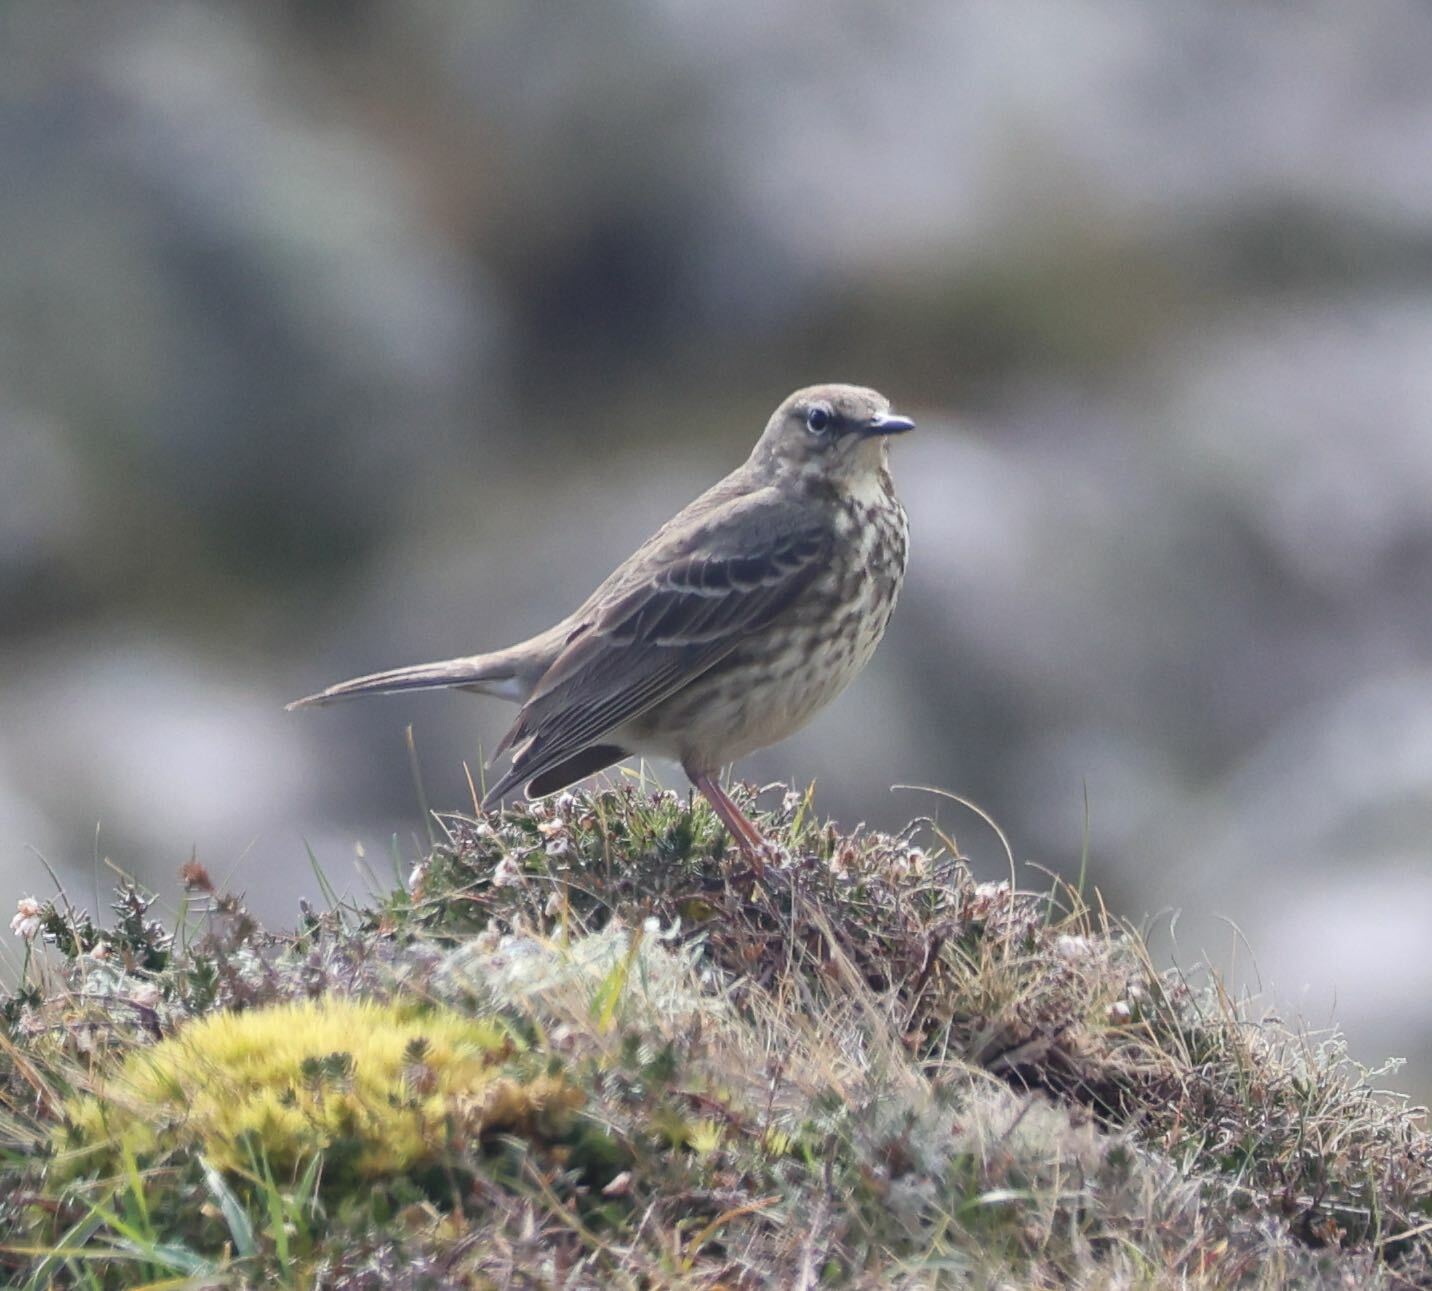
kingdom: Animalia
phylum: Chordata
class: Aves
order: Passeriformes
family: Motacillidae
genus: Anthus
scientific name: Anthus petrosus
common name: Eurasian rock pipit
